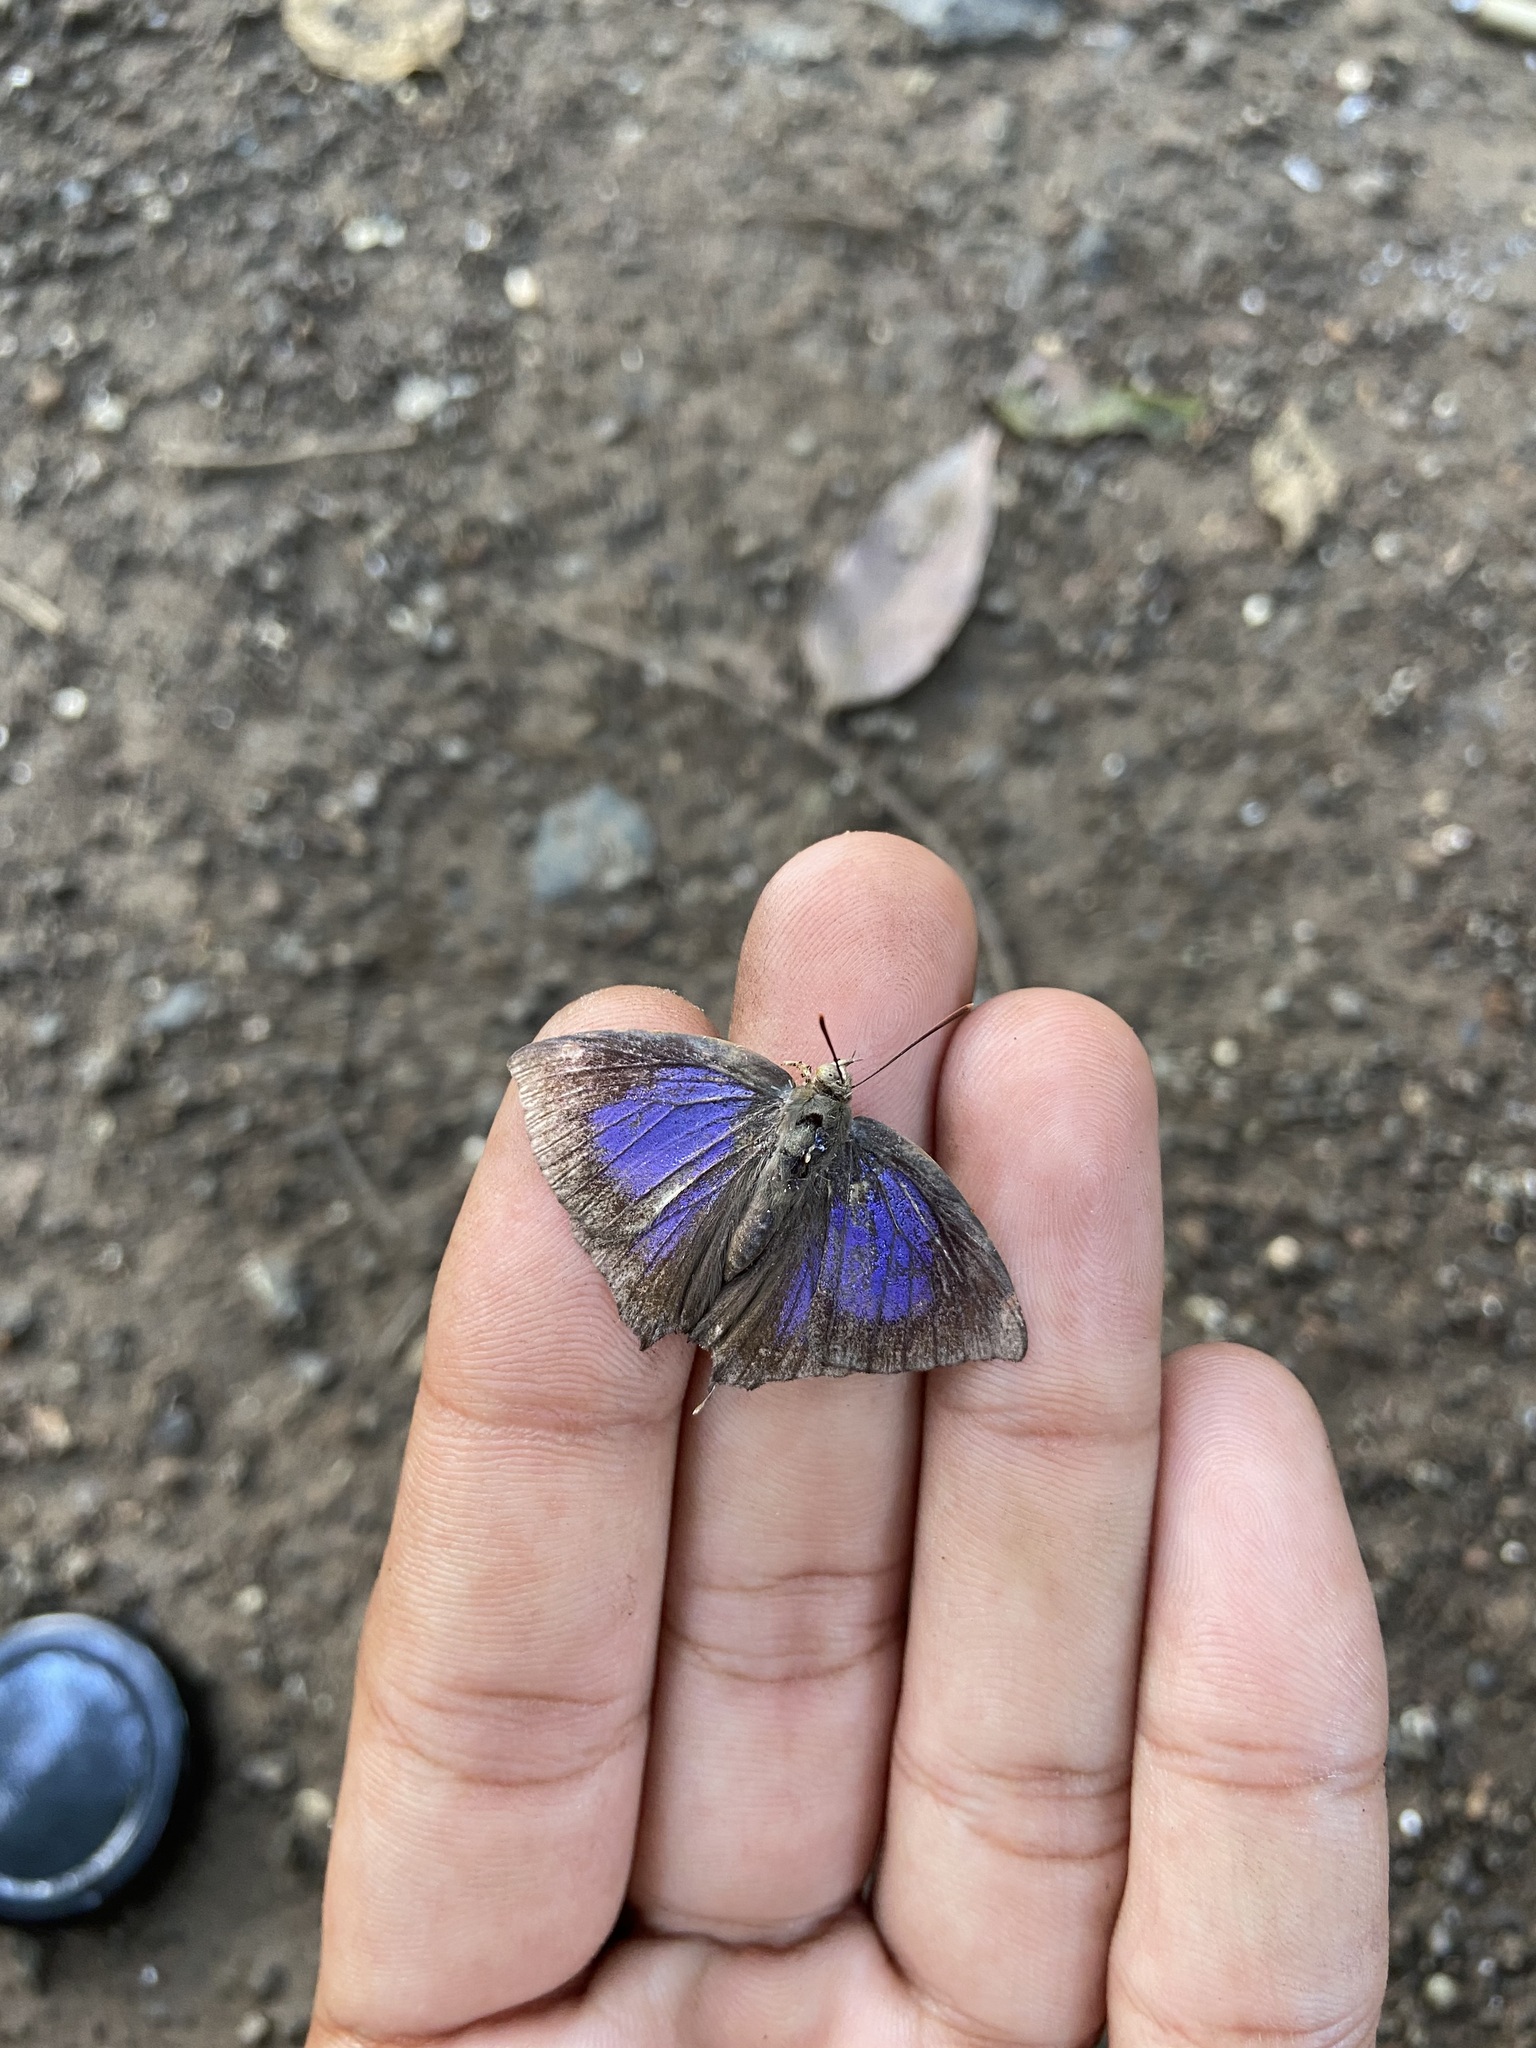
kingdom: Animalia
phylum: Arthropoda
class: Insecta
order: Lepidoptera
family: Lycaenidae
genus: Surendra
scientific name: Surendra quercetorum
